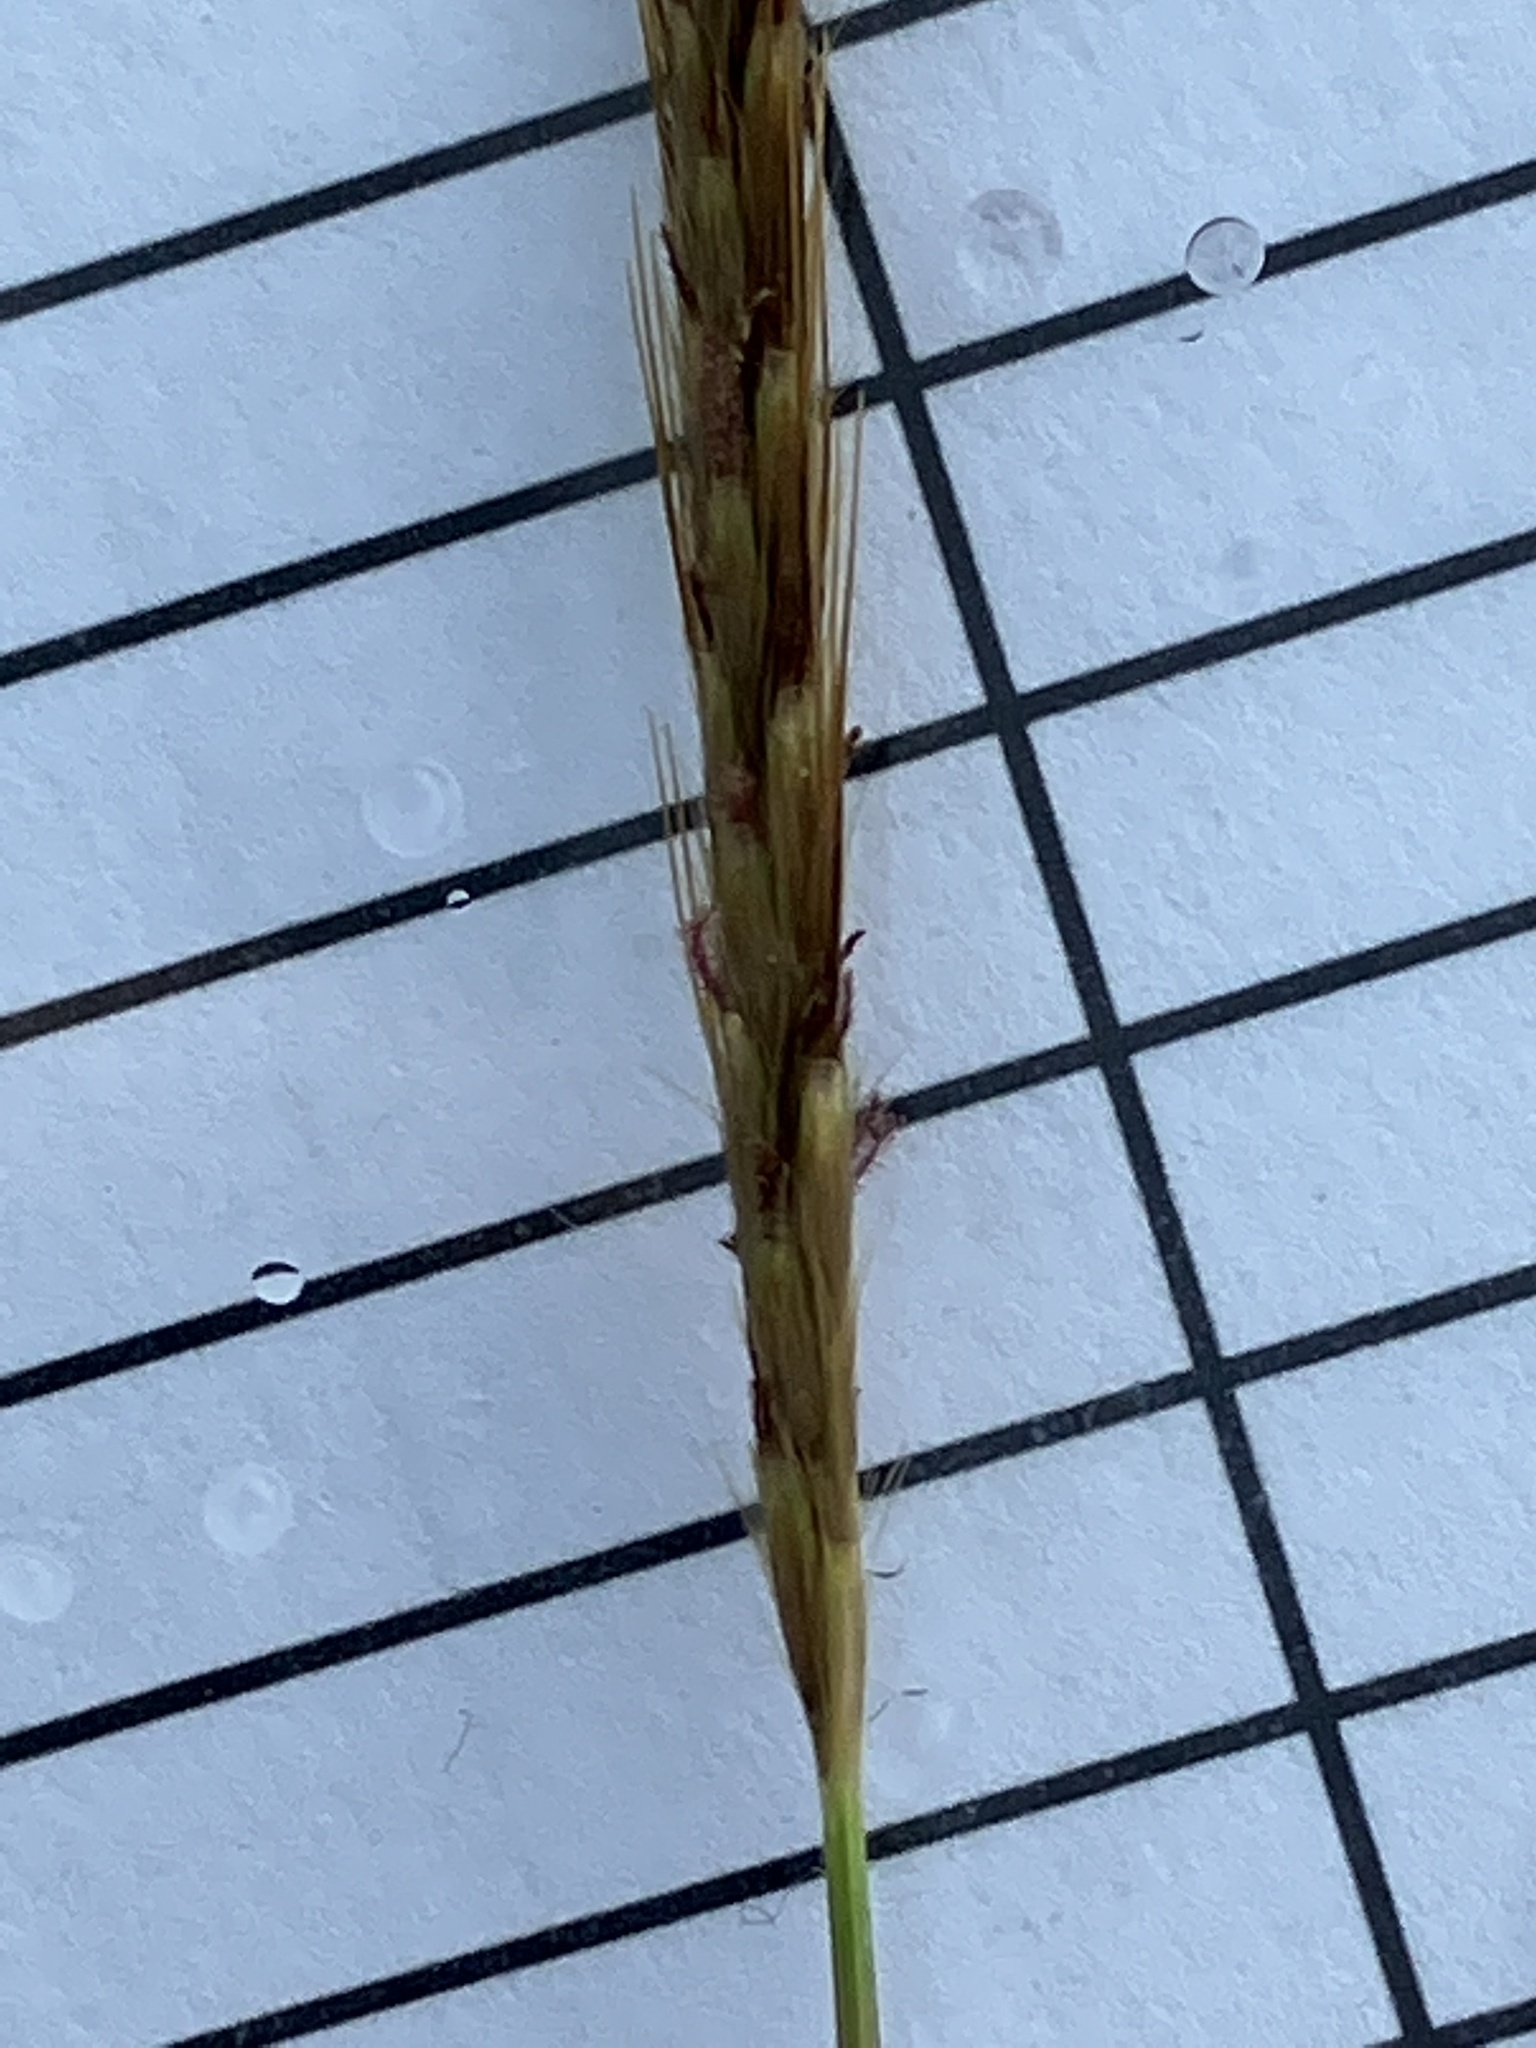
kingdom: Plantae
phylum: Tracheophyta
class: Liliopsida
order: Poales
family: Poaceae
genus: Polytrias
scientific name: Polytrias indica
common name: Indian murainagrass
